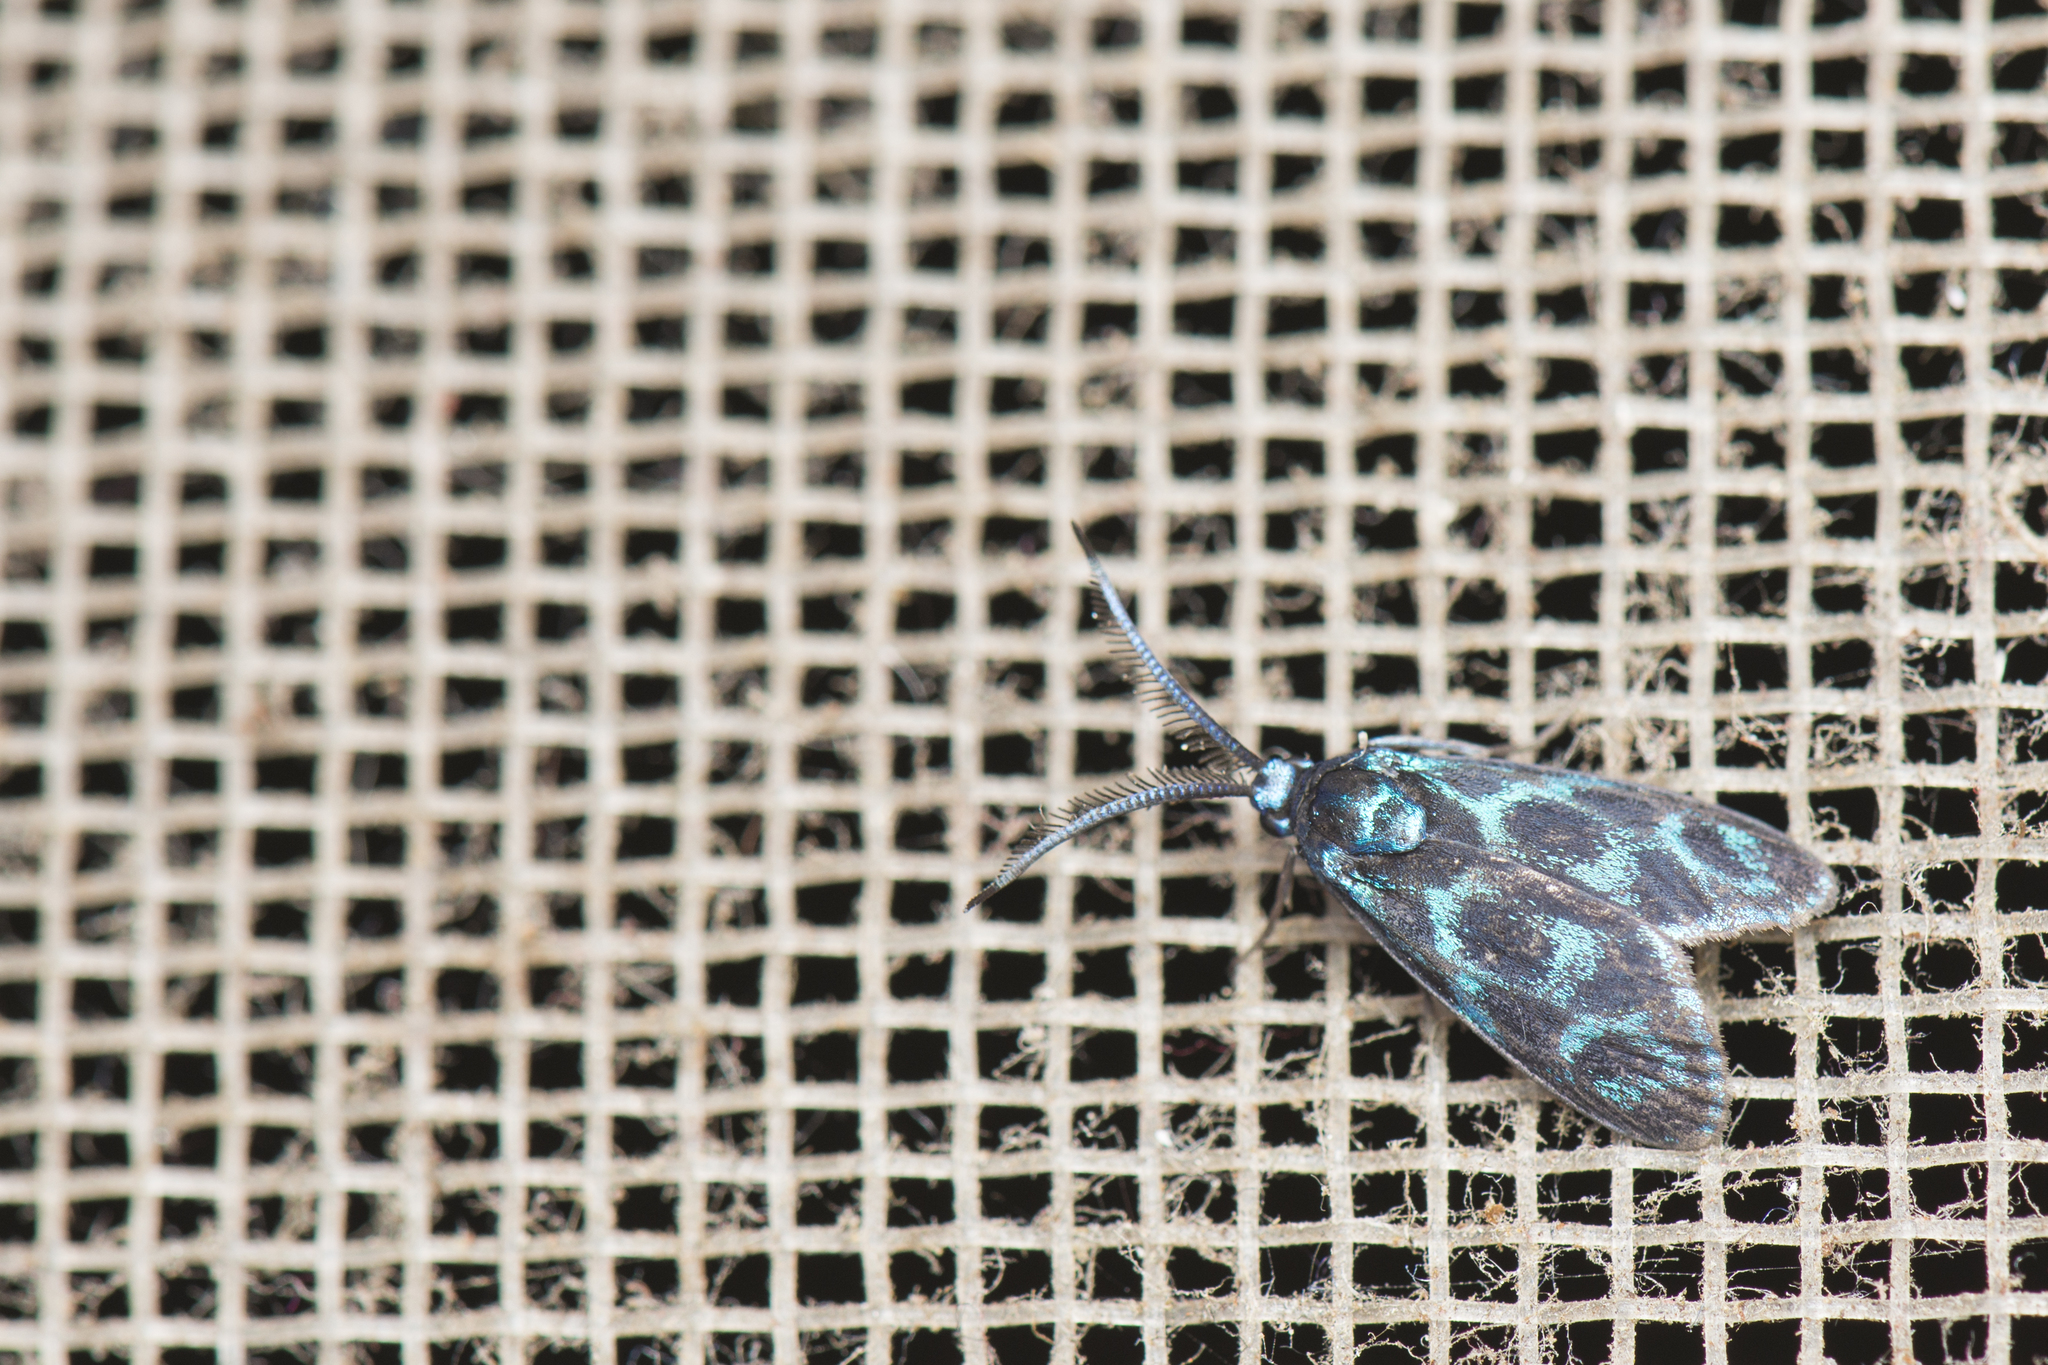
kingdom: Animalia
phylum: Arthropoda
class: Insecta
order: Lepidoptera
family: Zygaenidae
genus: Clelea
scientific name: Clelea nigroviridis
